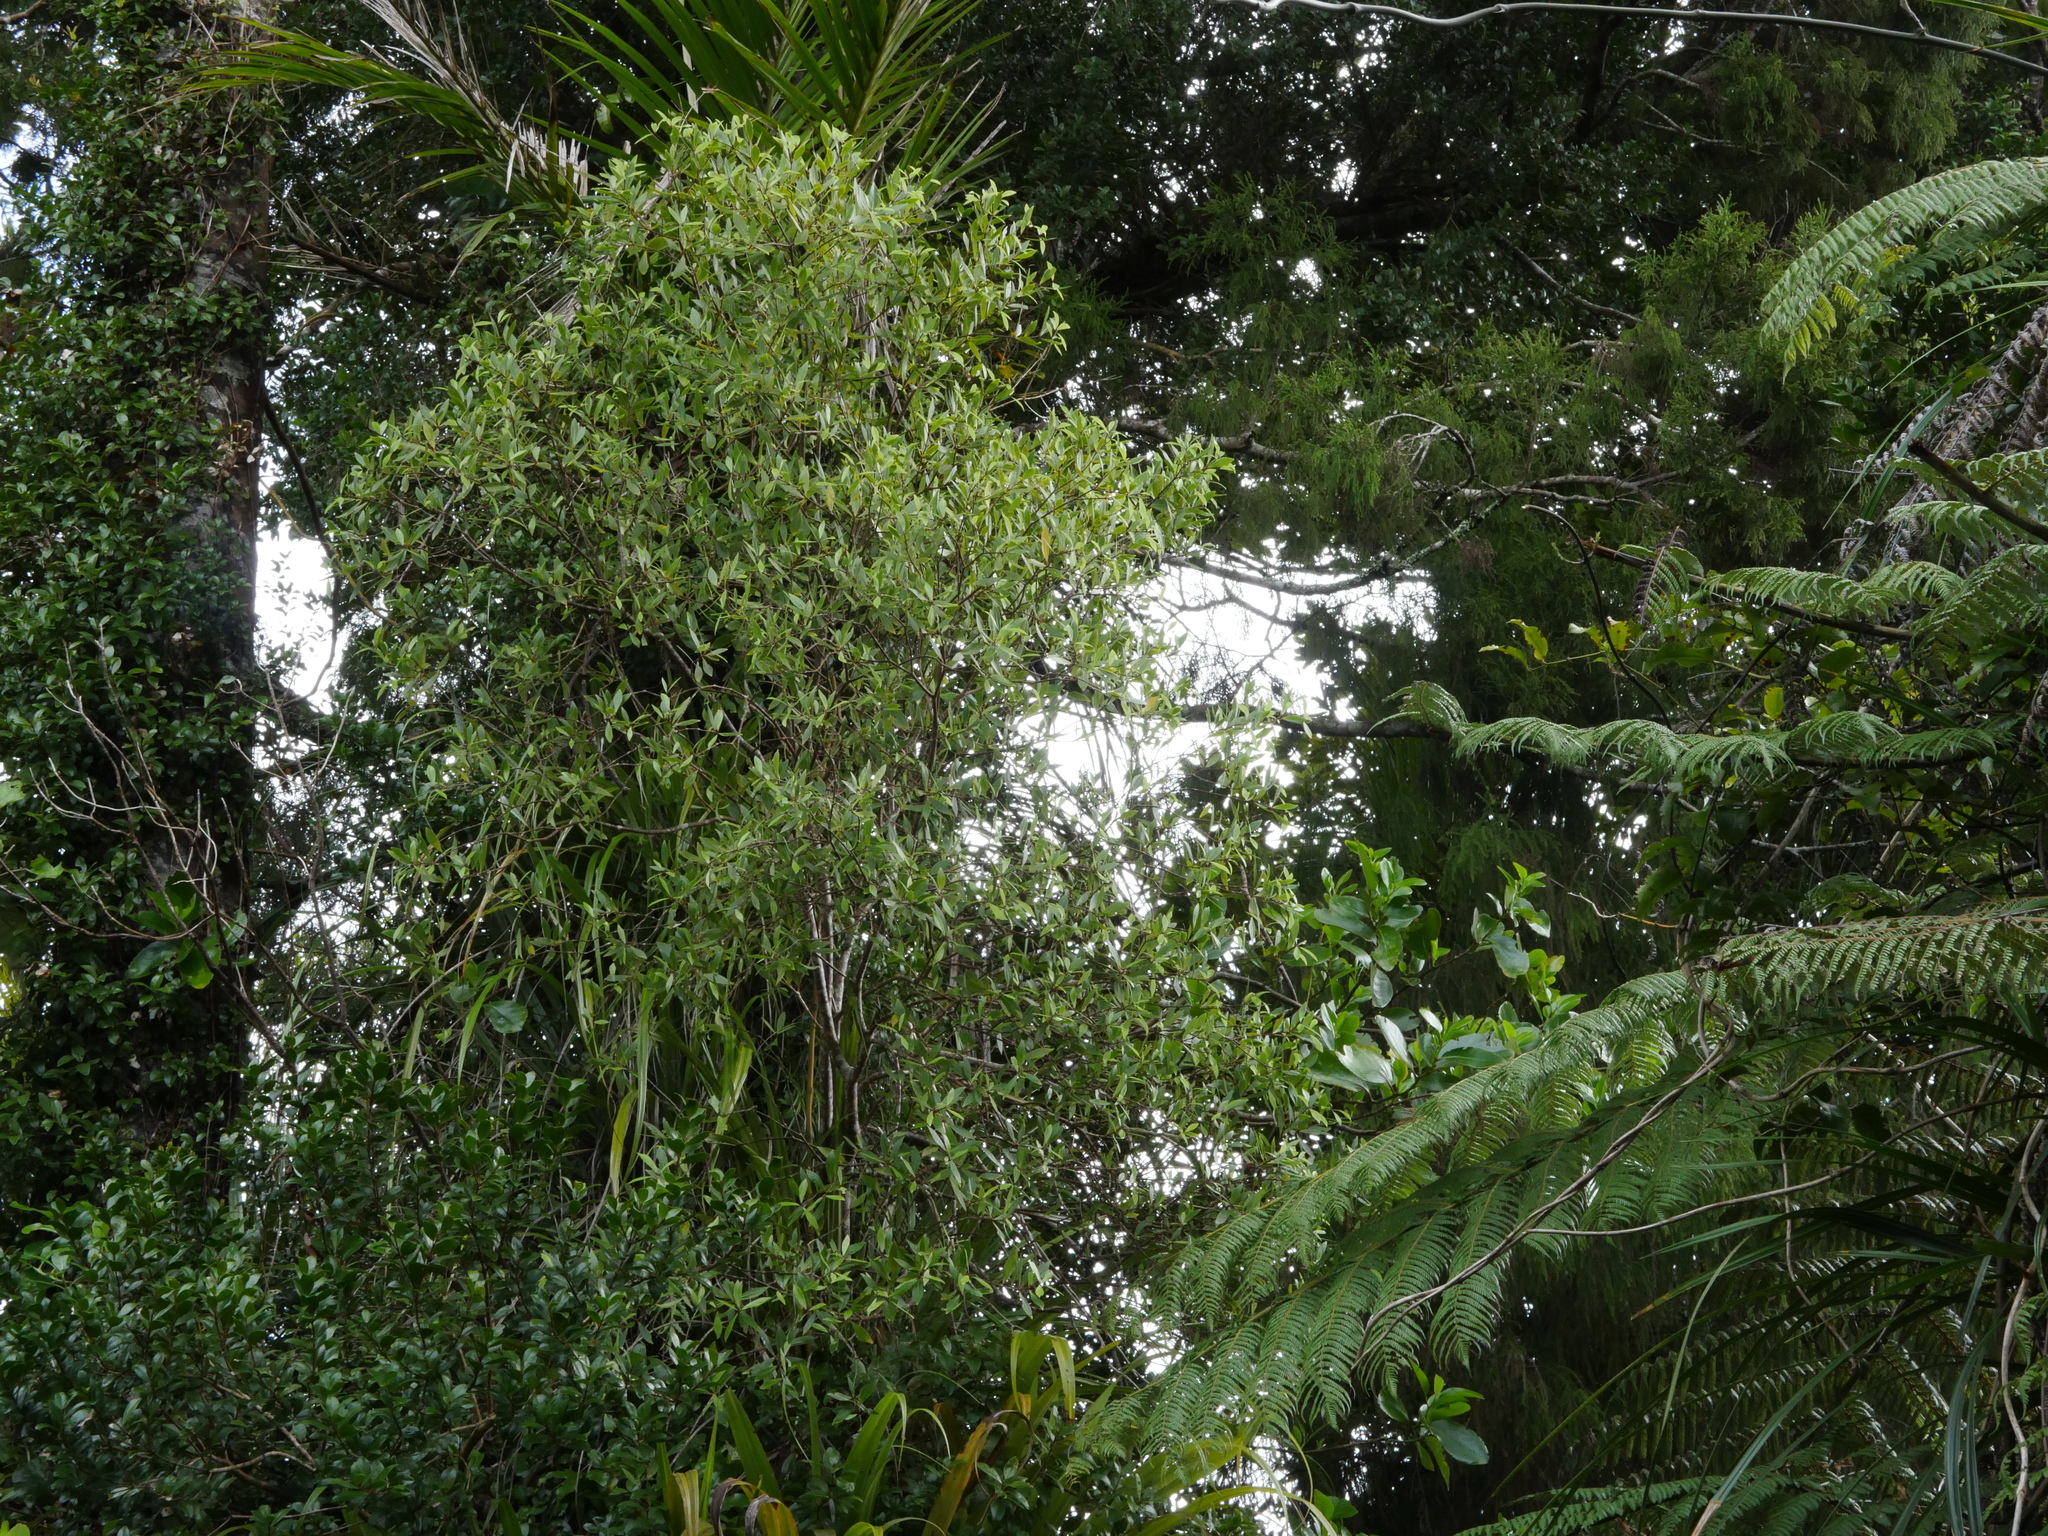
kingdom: Plantae
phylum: Tracheophyta
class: Magnoliopsida
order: Apiales
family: Pittosporaceae
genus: Pittosporum
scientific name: Pittosporum cornifolium
